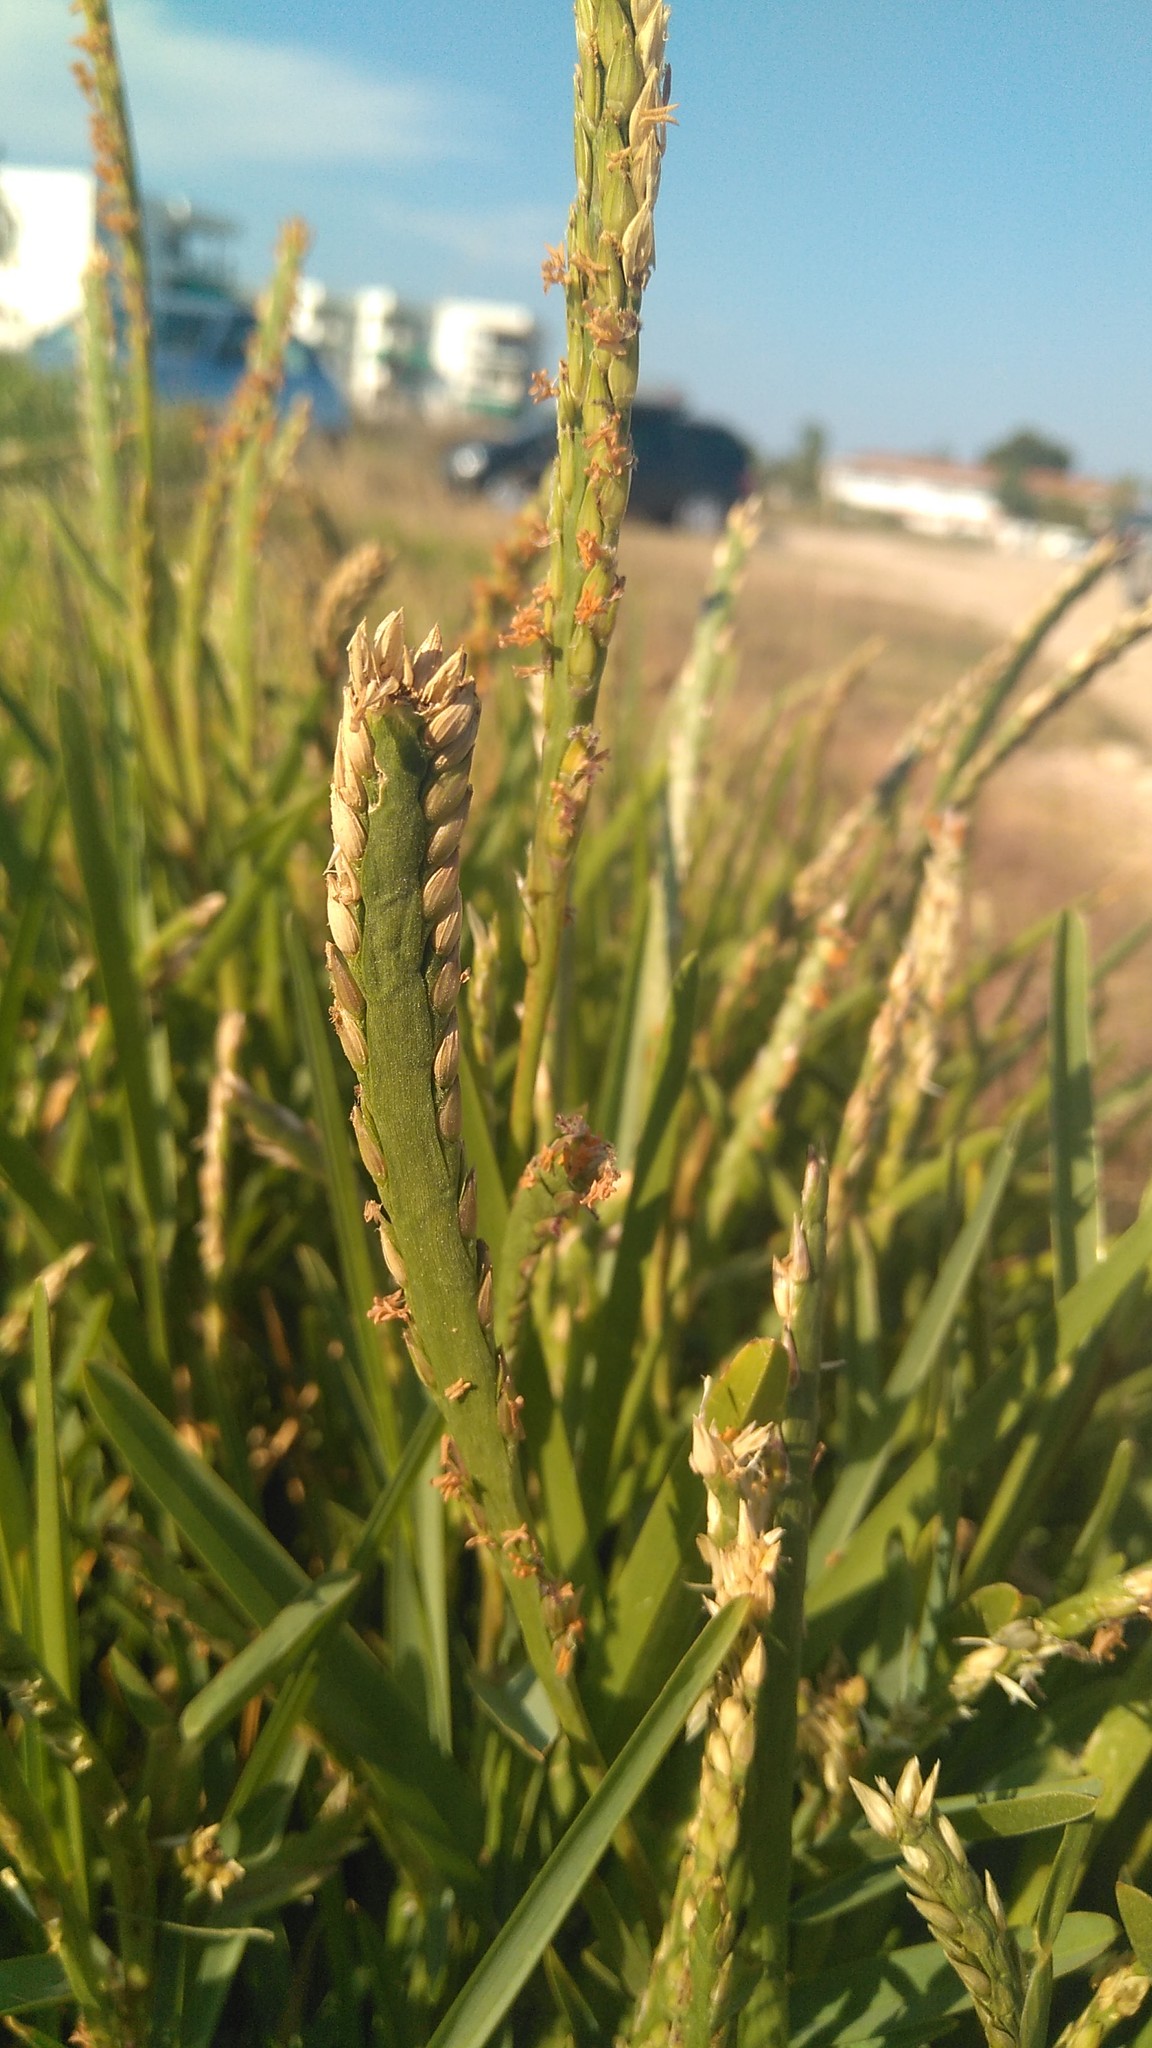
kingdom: Plantae
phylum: Tracheophyta
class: Liliopsida
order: Poales
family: Poaceae
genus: Stenotaphrum
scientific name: Stenotaphrum secundatum
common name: St. augustine grass
